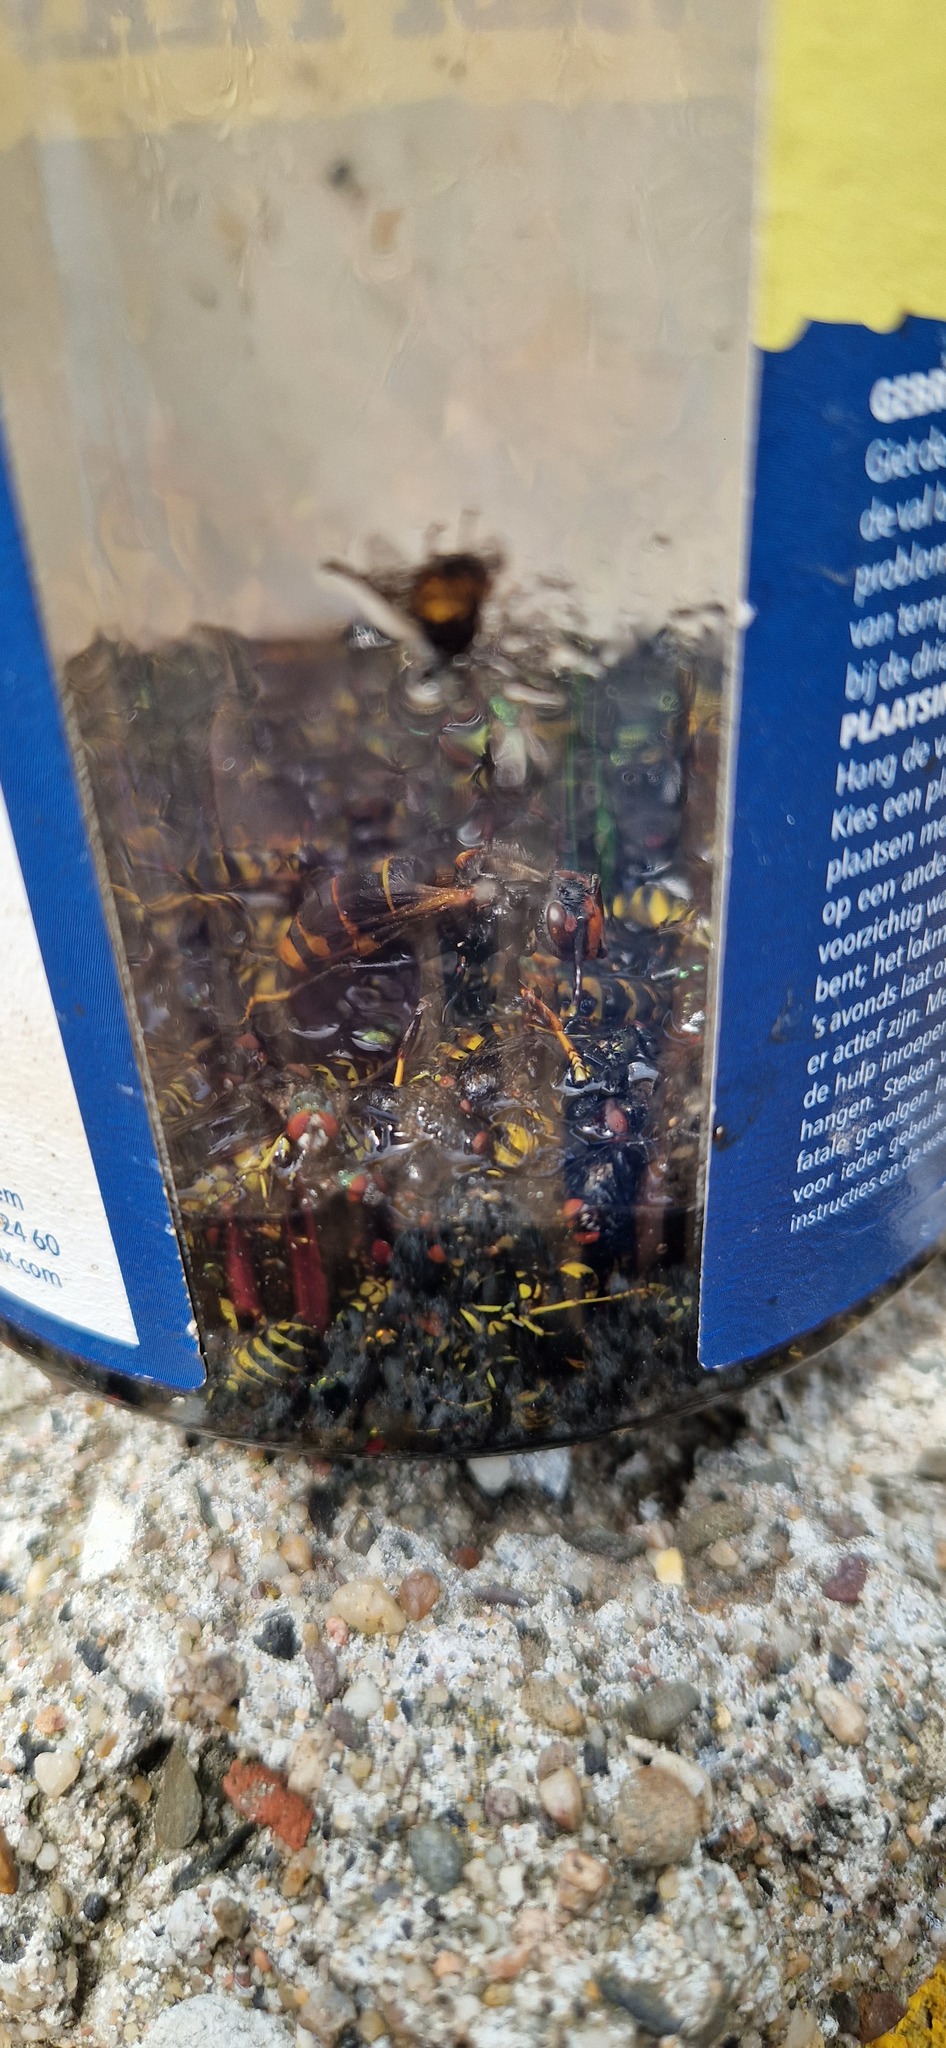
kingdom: Animalia
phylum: Arthropoda
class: Insecta
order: Hymenoptera
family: Vespidae
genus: Vespa
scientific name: Vespa velutina
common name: Asian hornet
